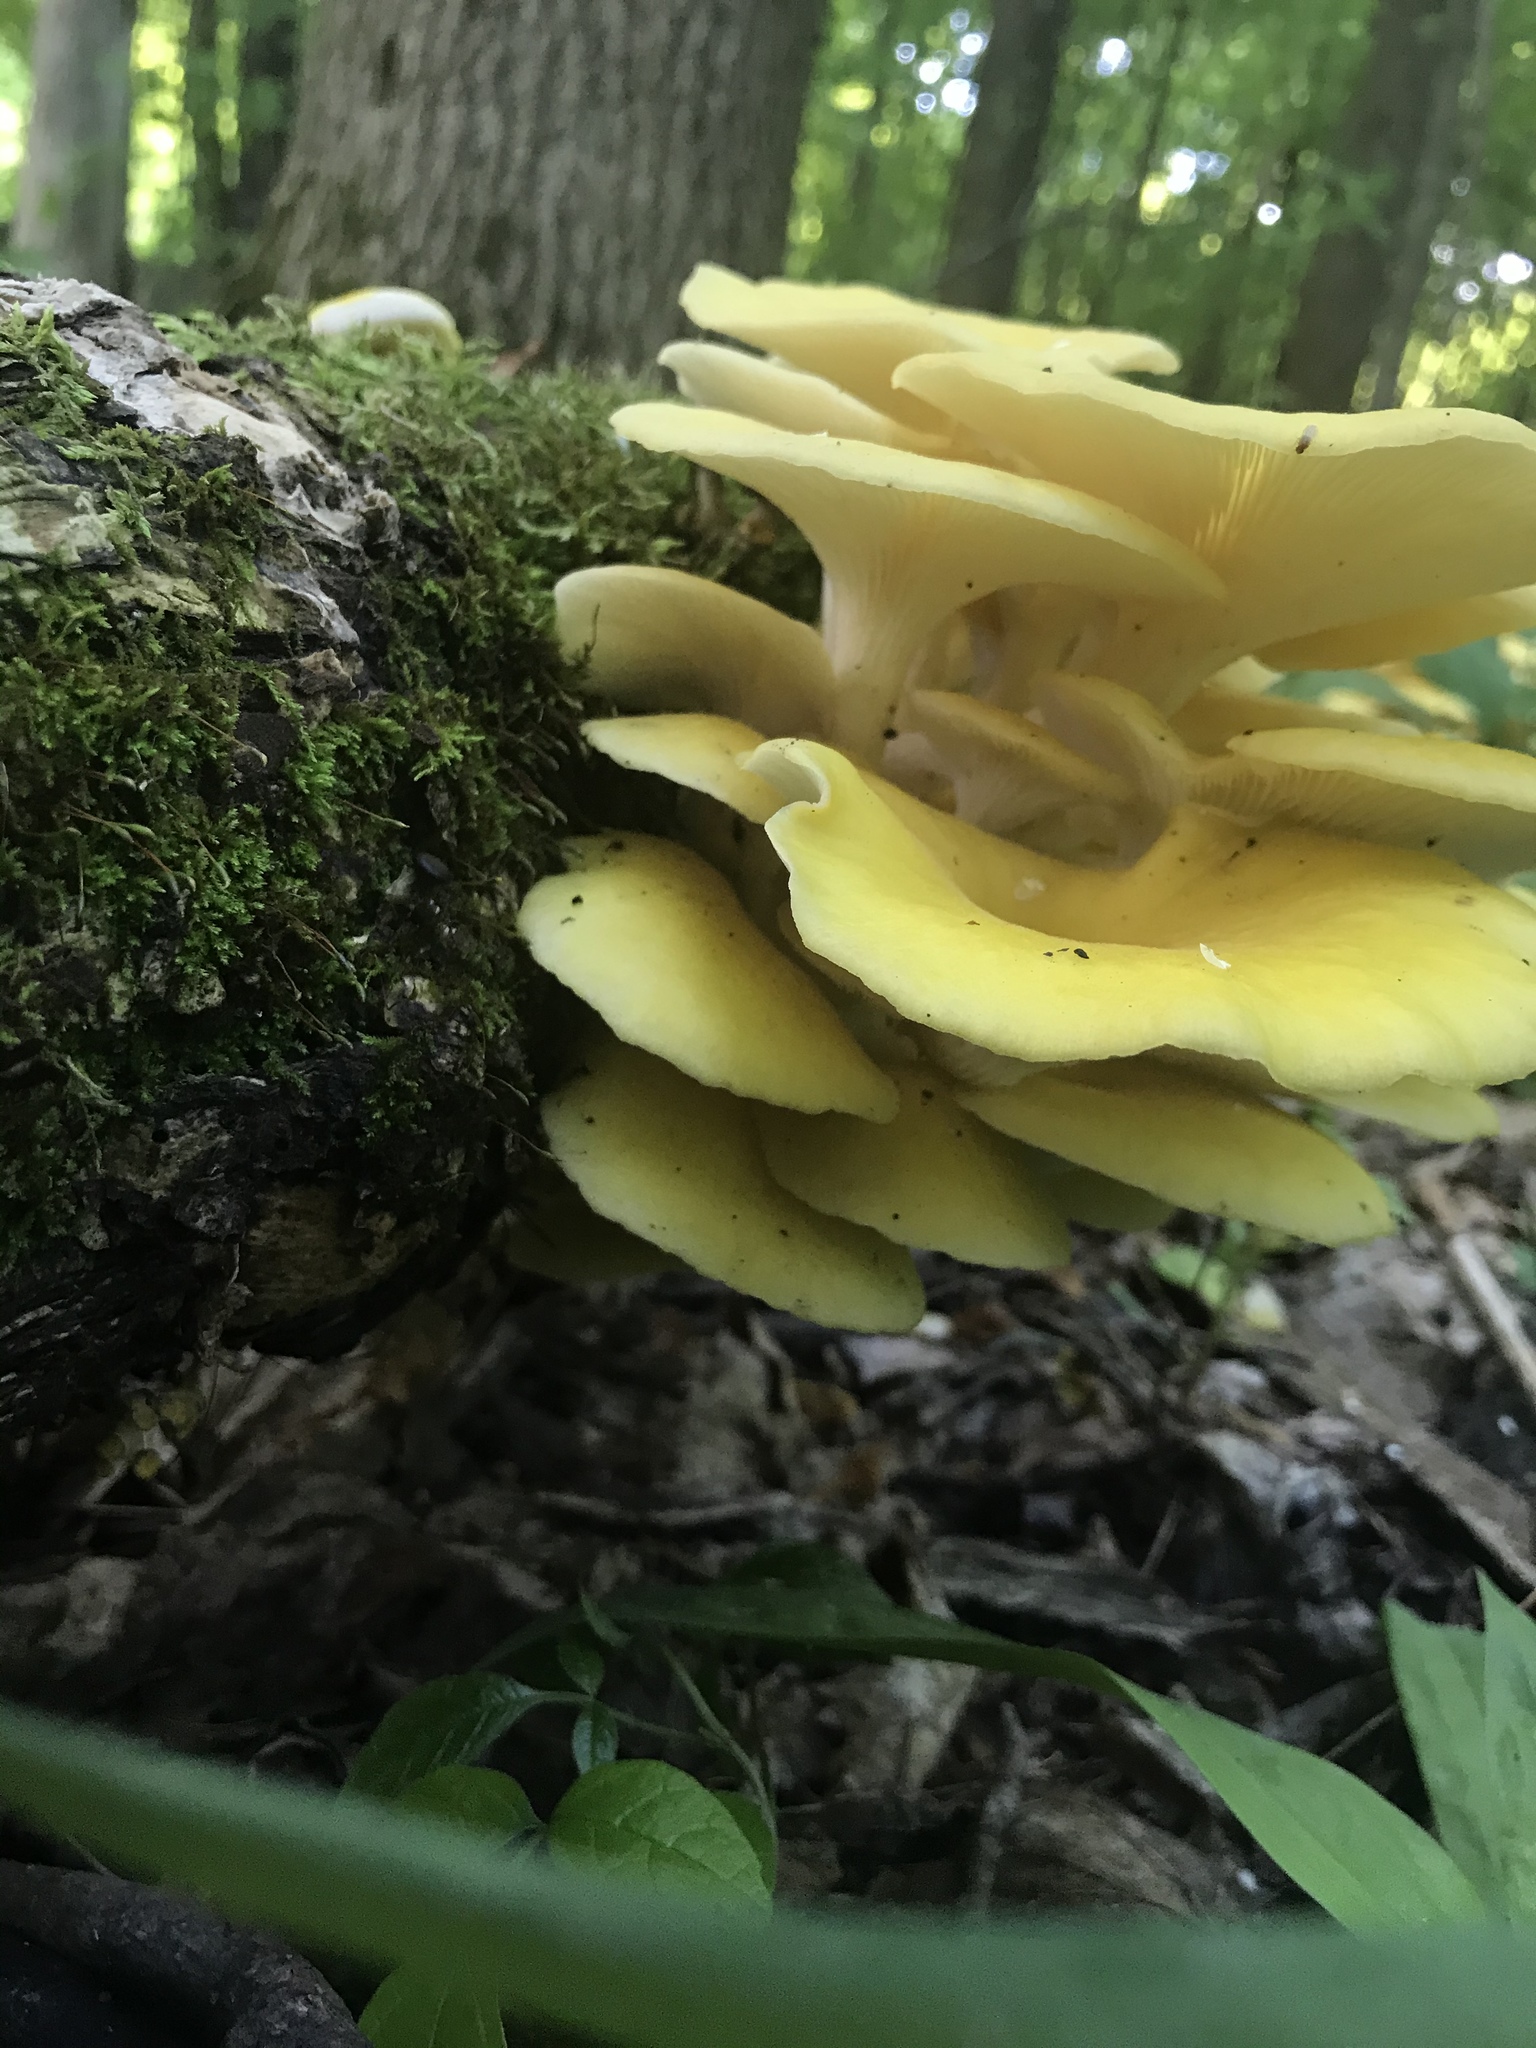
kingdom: Fungi
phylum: Basidiomycota
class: Agaricomycetes
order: Agaricales
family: Pleurotaceae
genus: Pleurotus
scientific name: Pleurotus citrinopileatus
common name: Golden oyster mushroom
